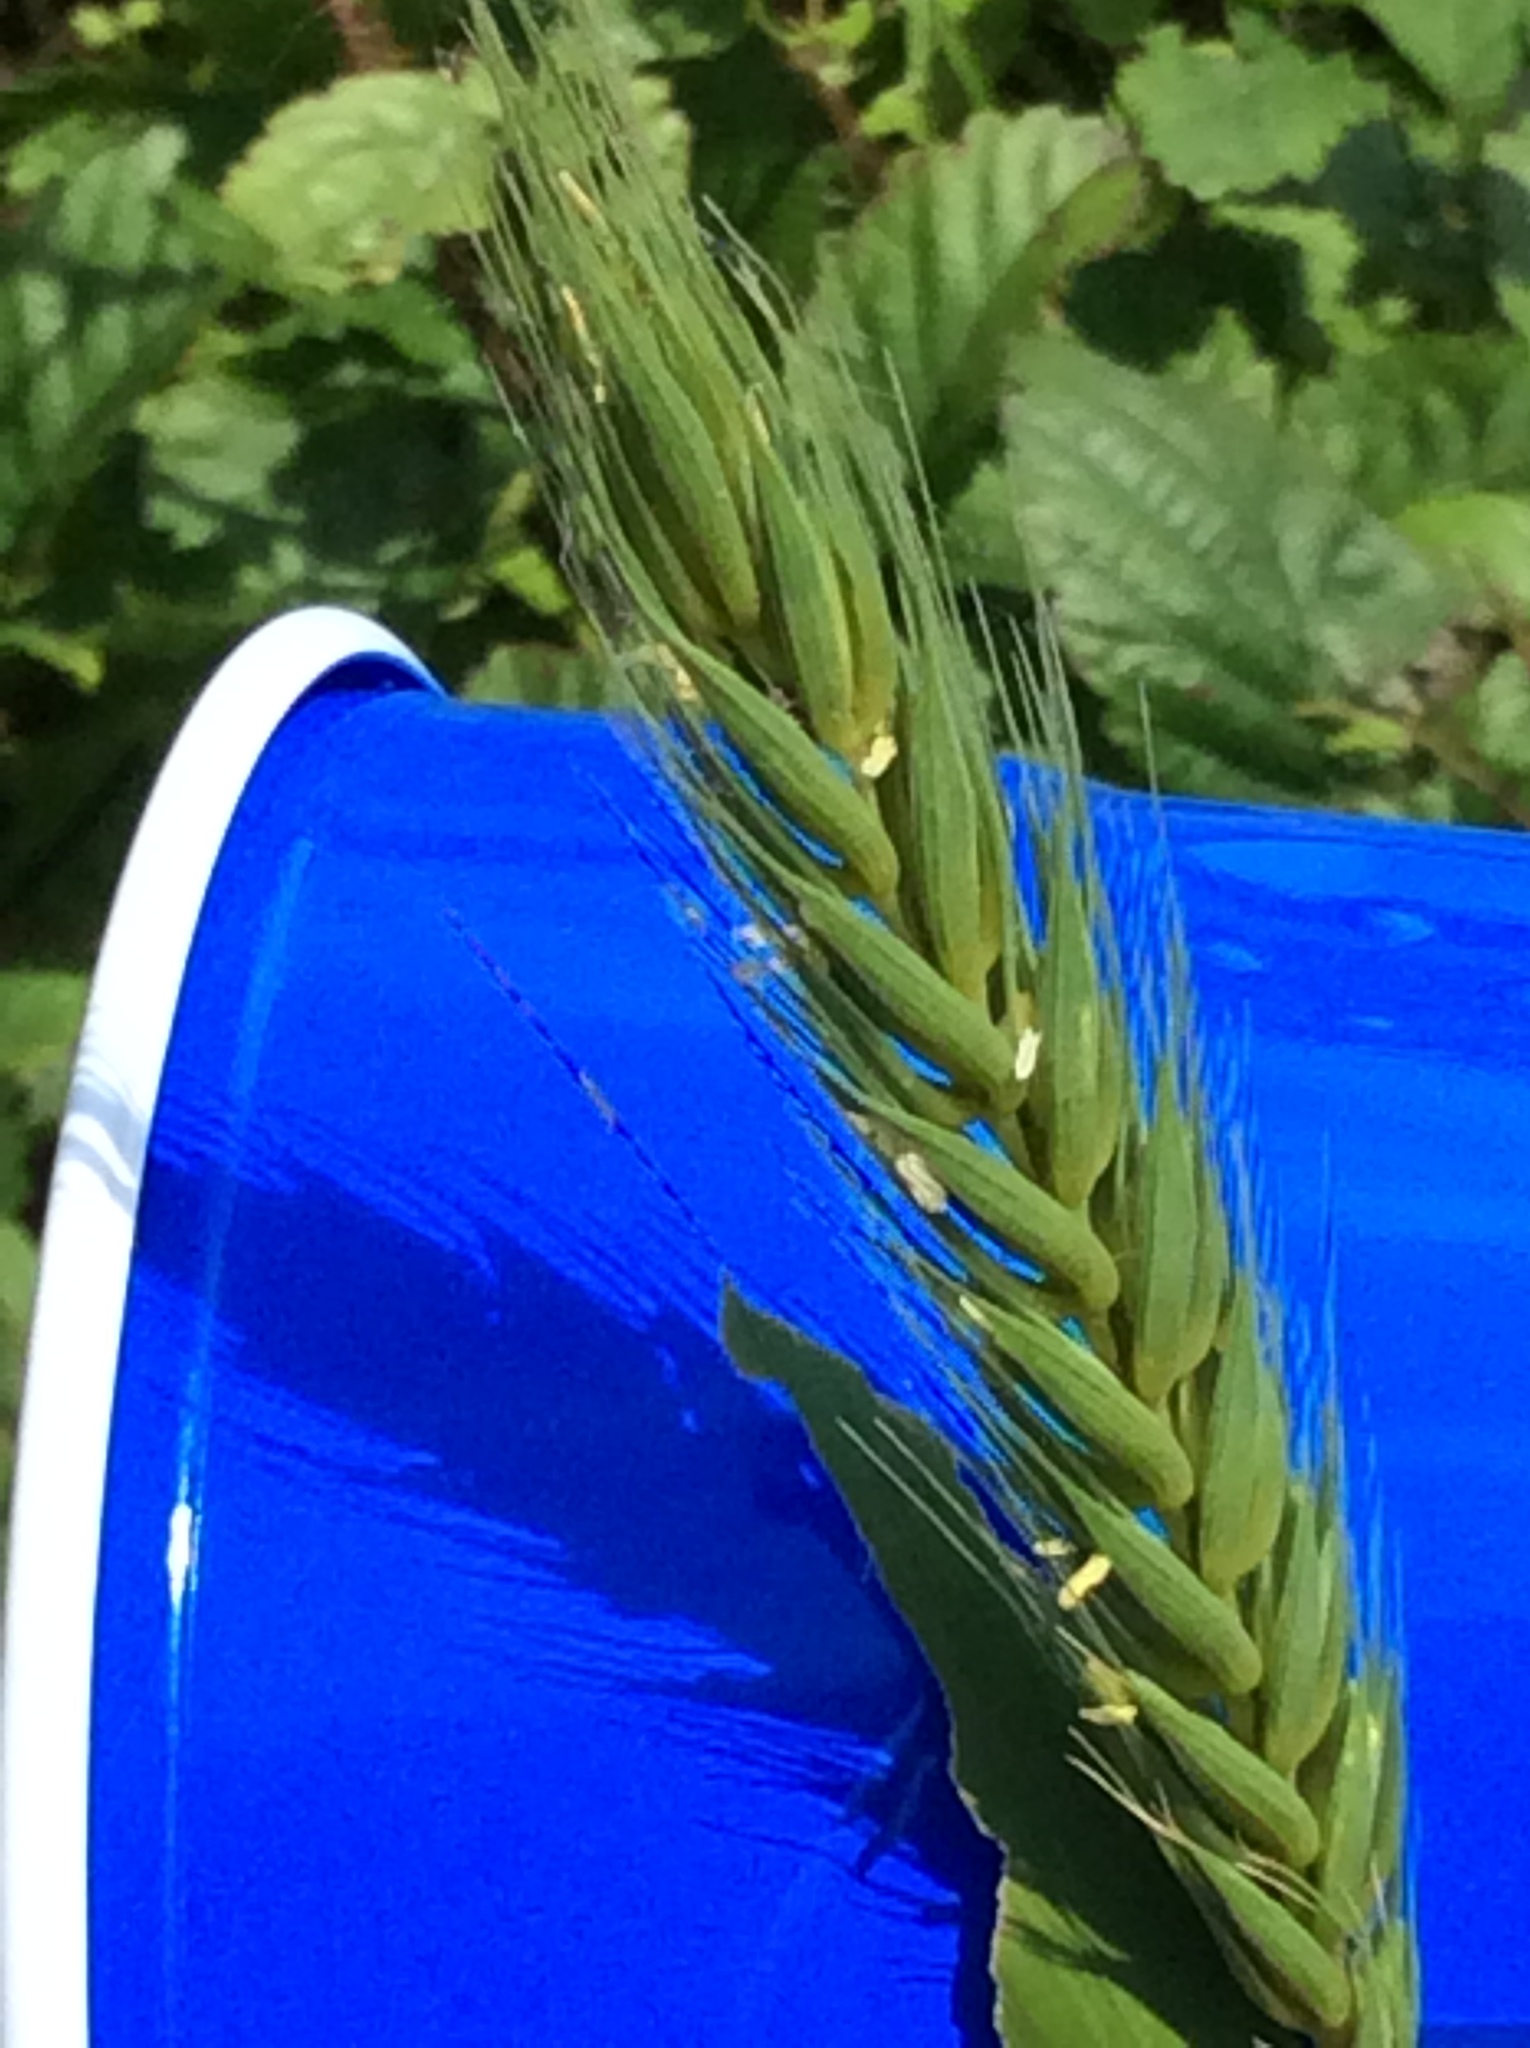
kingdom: Plantae
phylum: Tracheophyta
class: Liliopsida
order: Poales
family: Poaceae
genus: Elymus
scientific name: Elymus virginicus
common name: Common eastern wildrye
